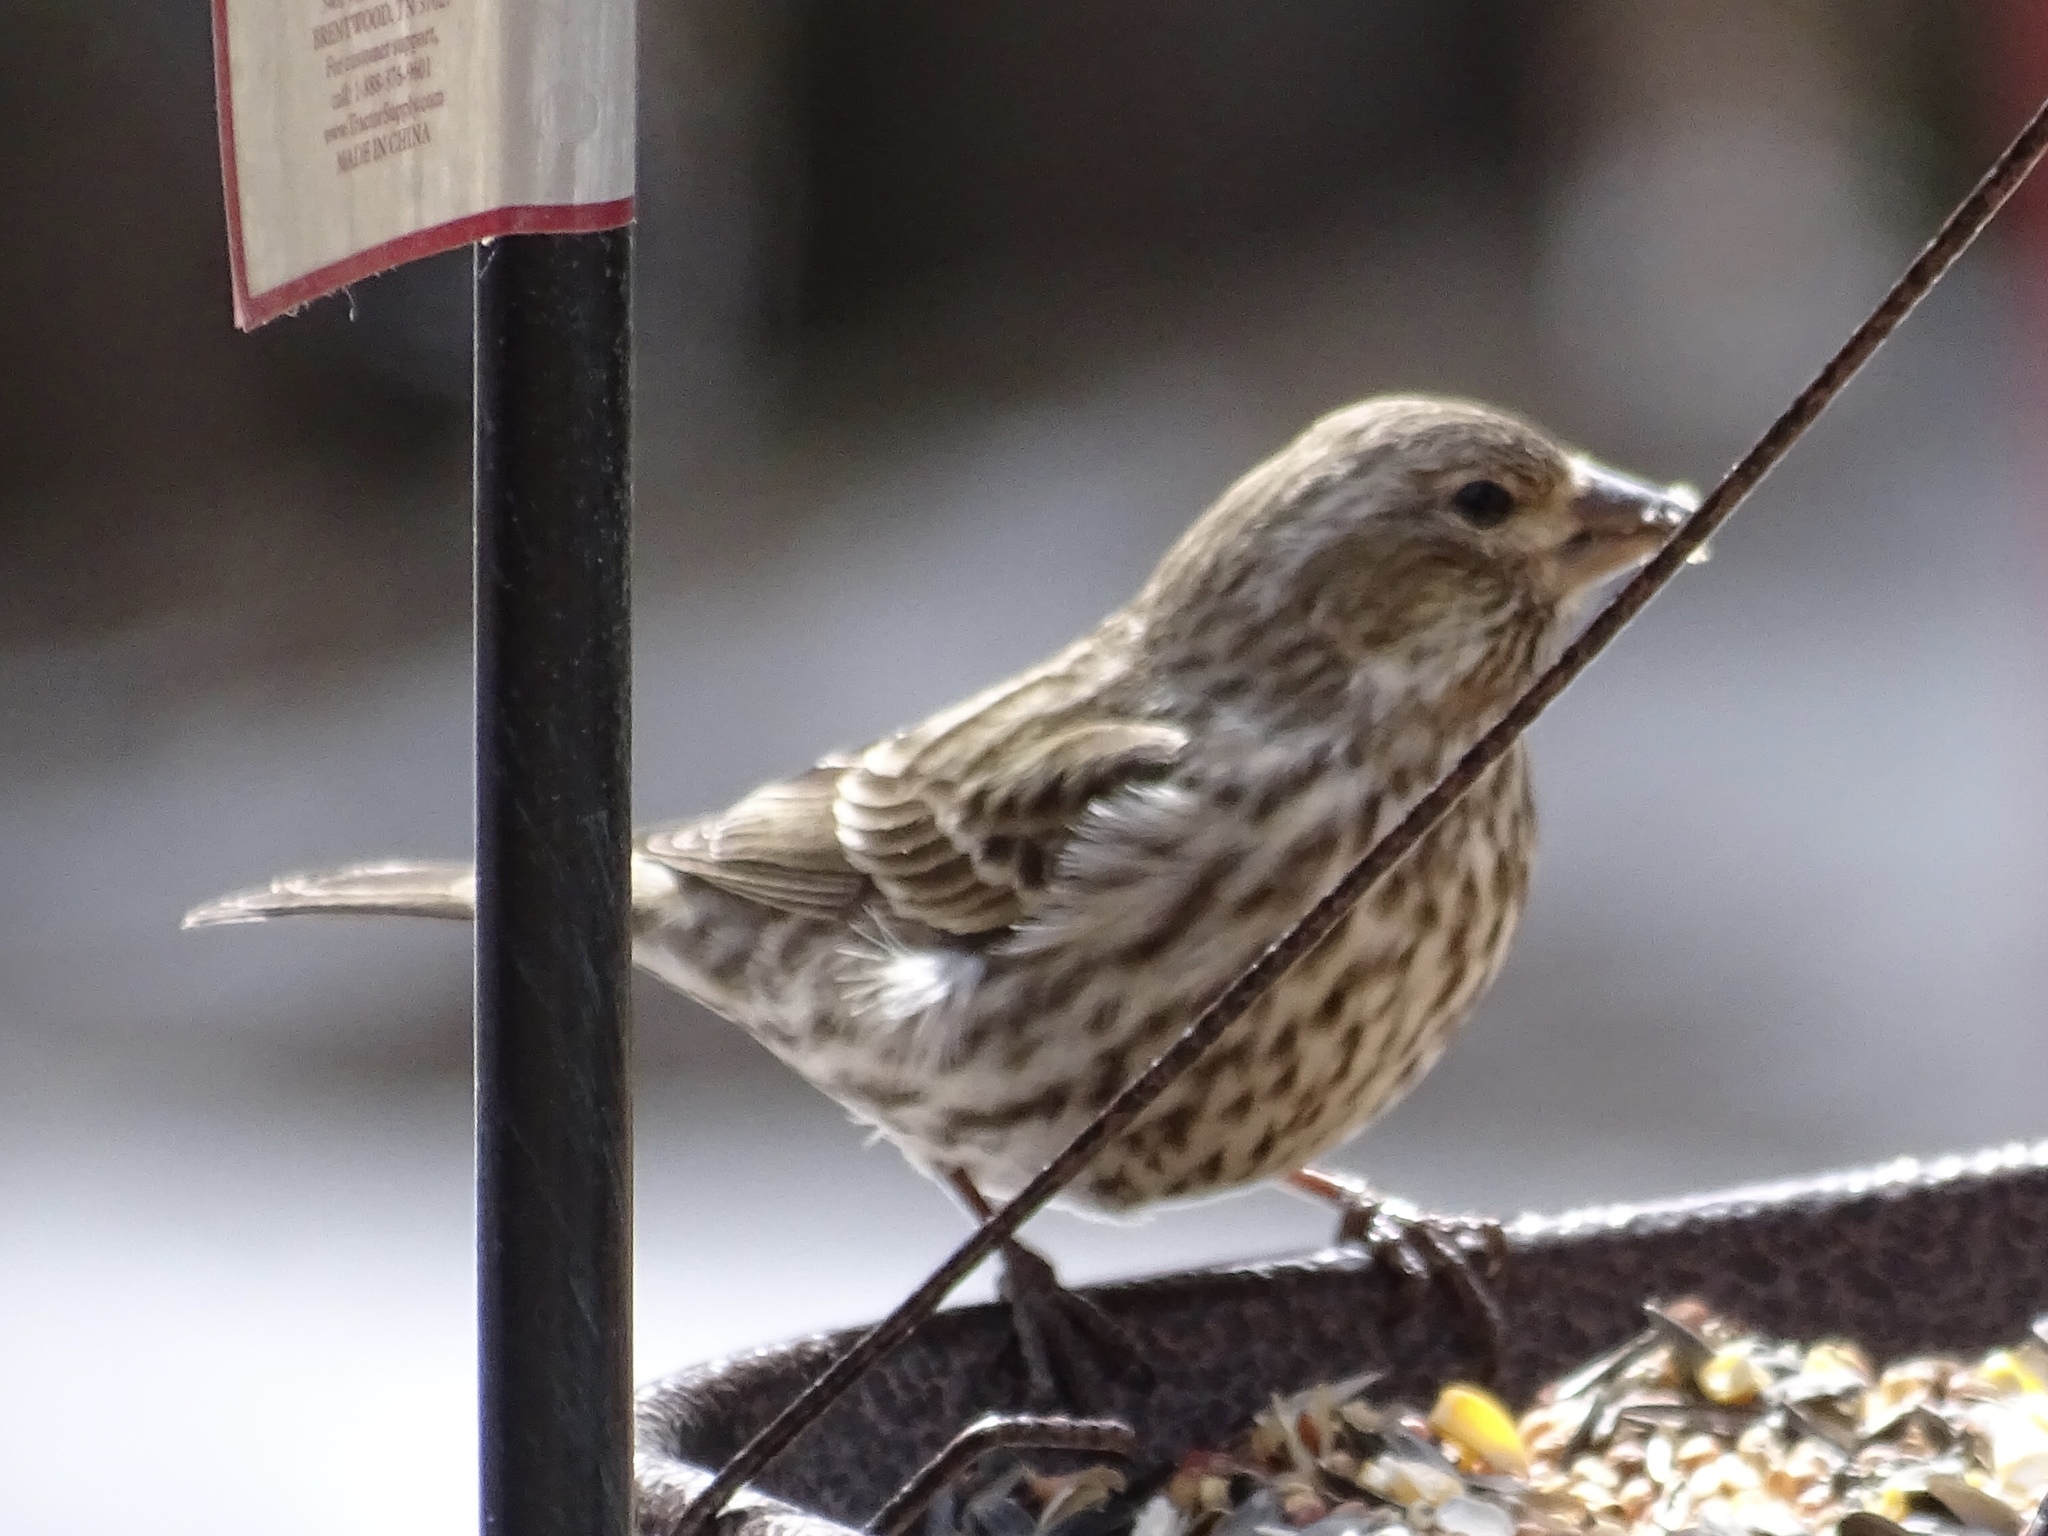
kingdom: Animalia
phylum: Chordata
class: Aves
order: Passeriformes
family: Fringillidae
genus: Haemorhous
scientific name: Haemorhous cassinii
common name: Cassin's finch
